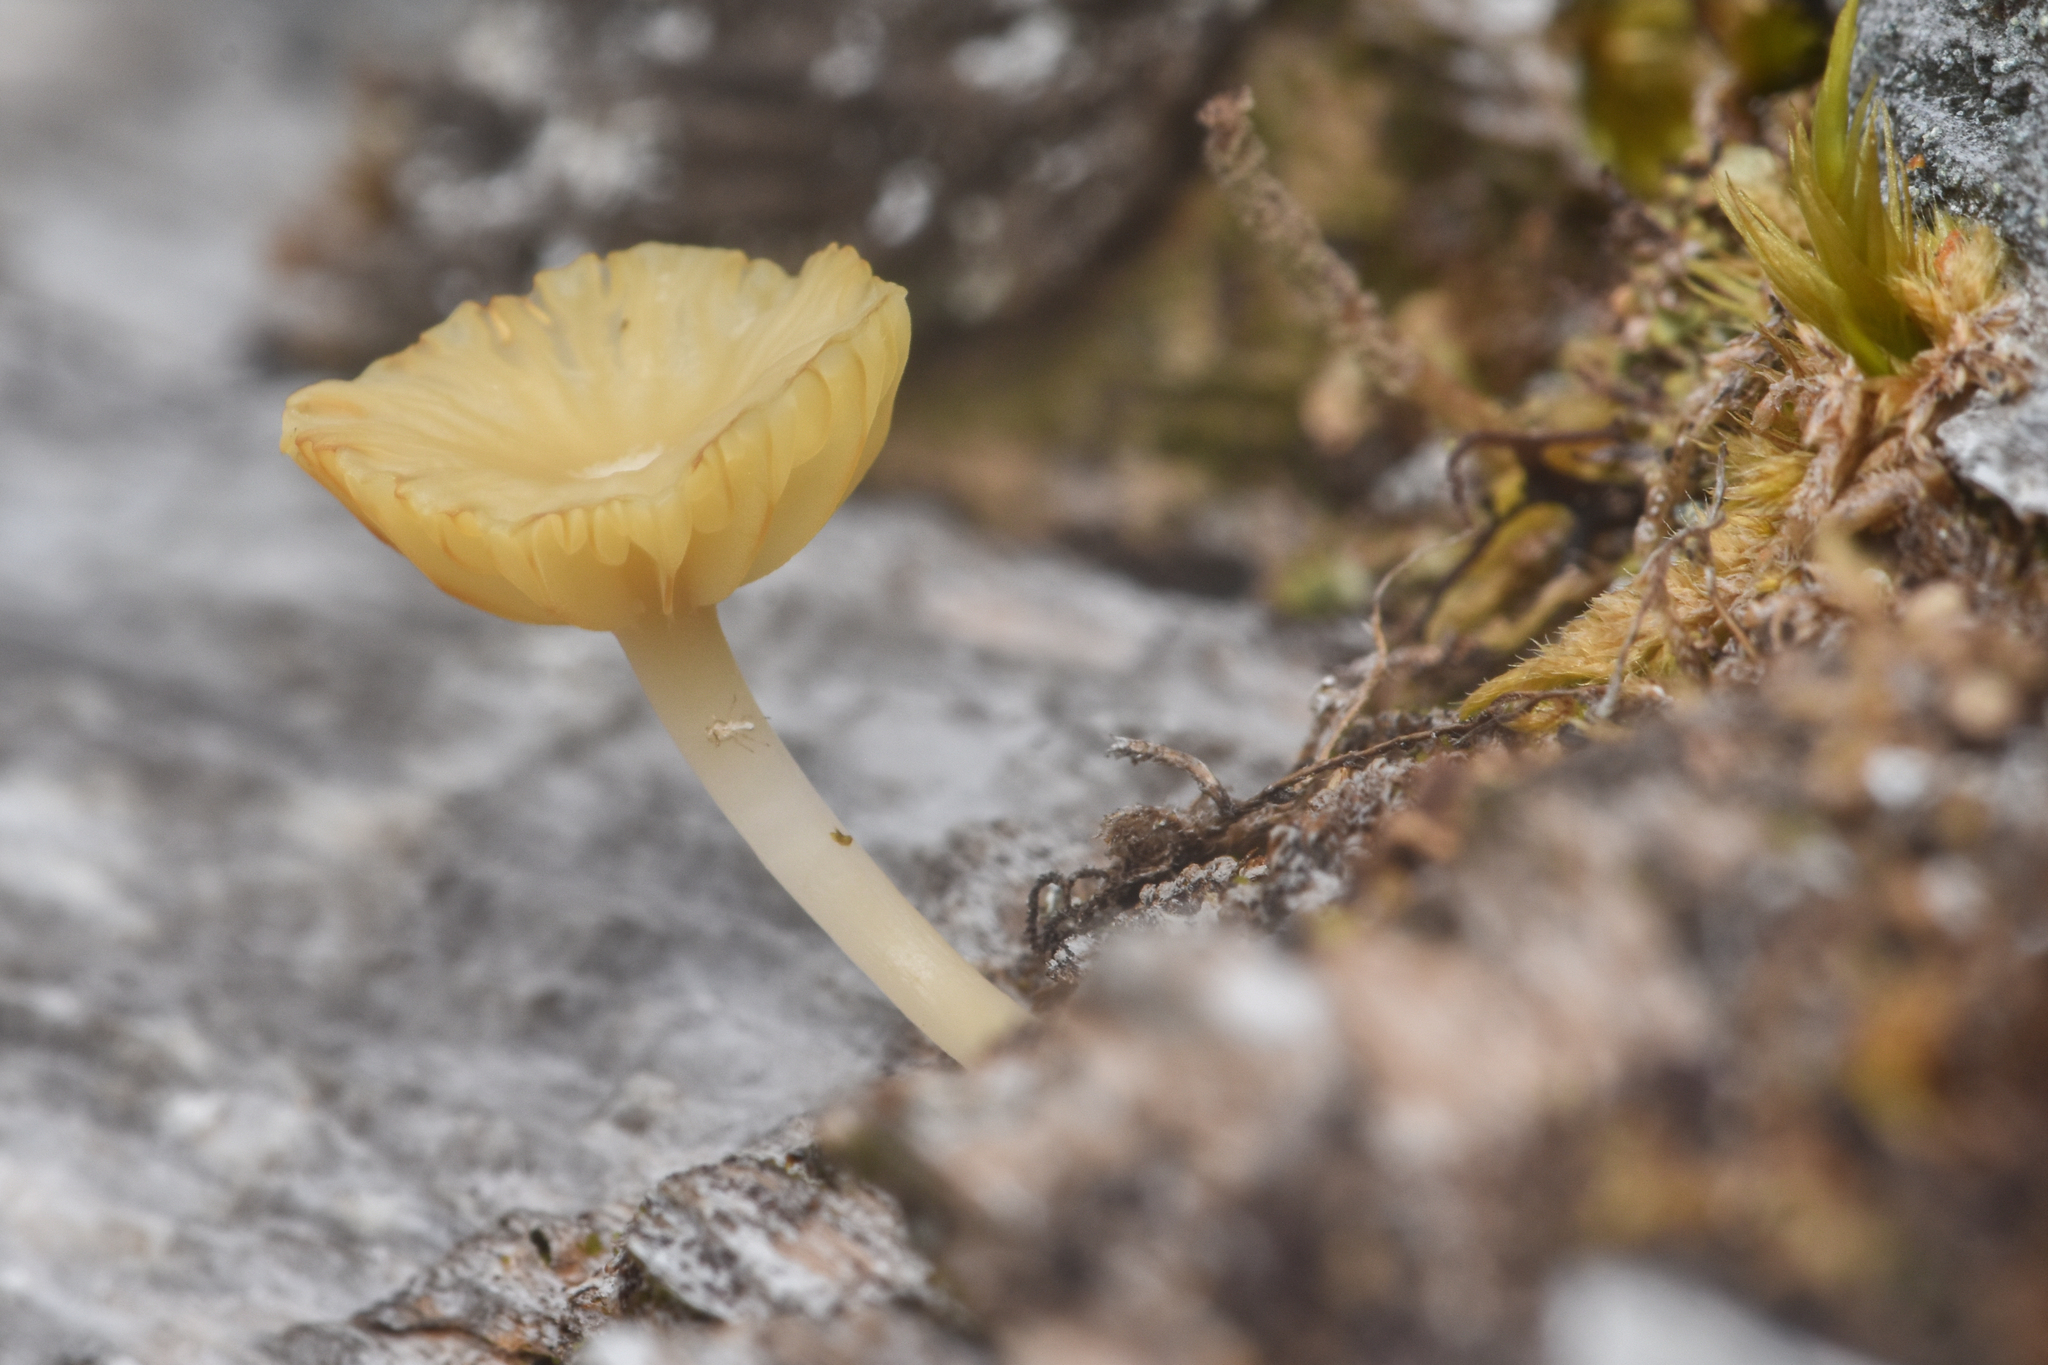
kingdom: Fungi
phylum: Basidiomycota
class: Agaricomycetes
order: Agaricales
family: Hygrophoraceae
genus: Lichenomphalia
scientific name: Lichenomphalia
